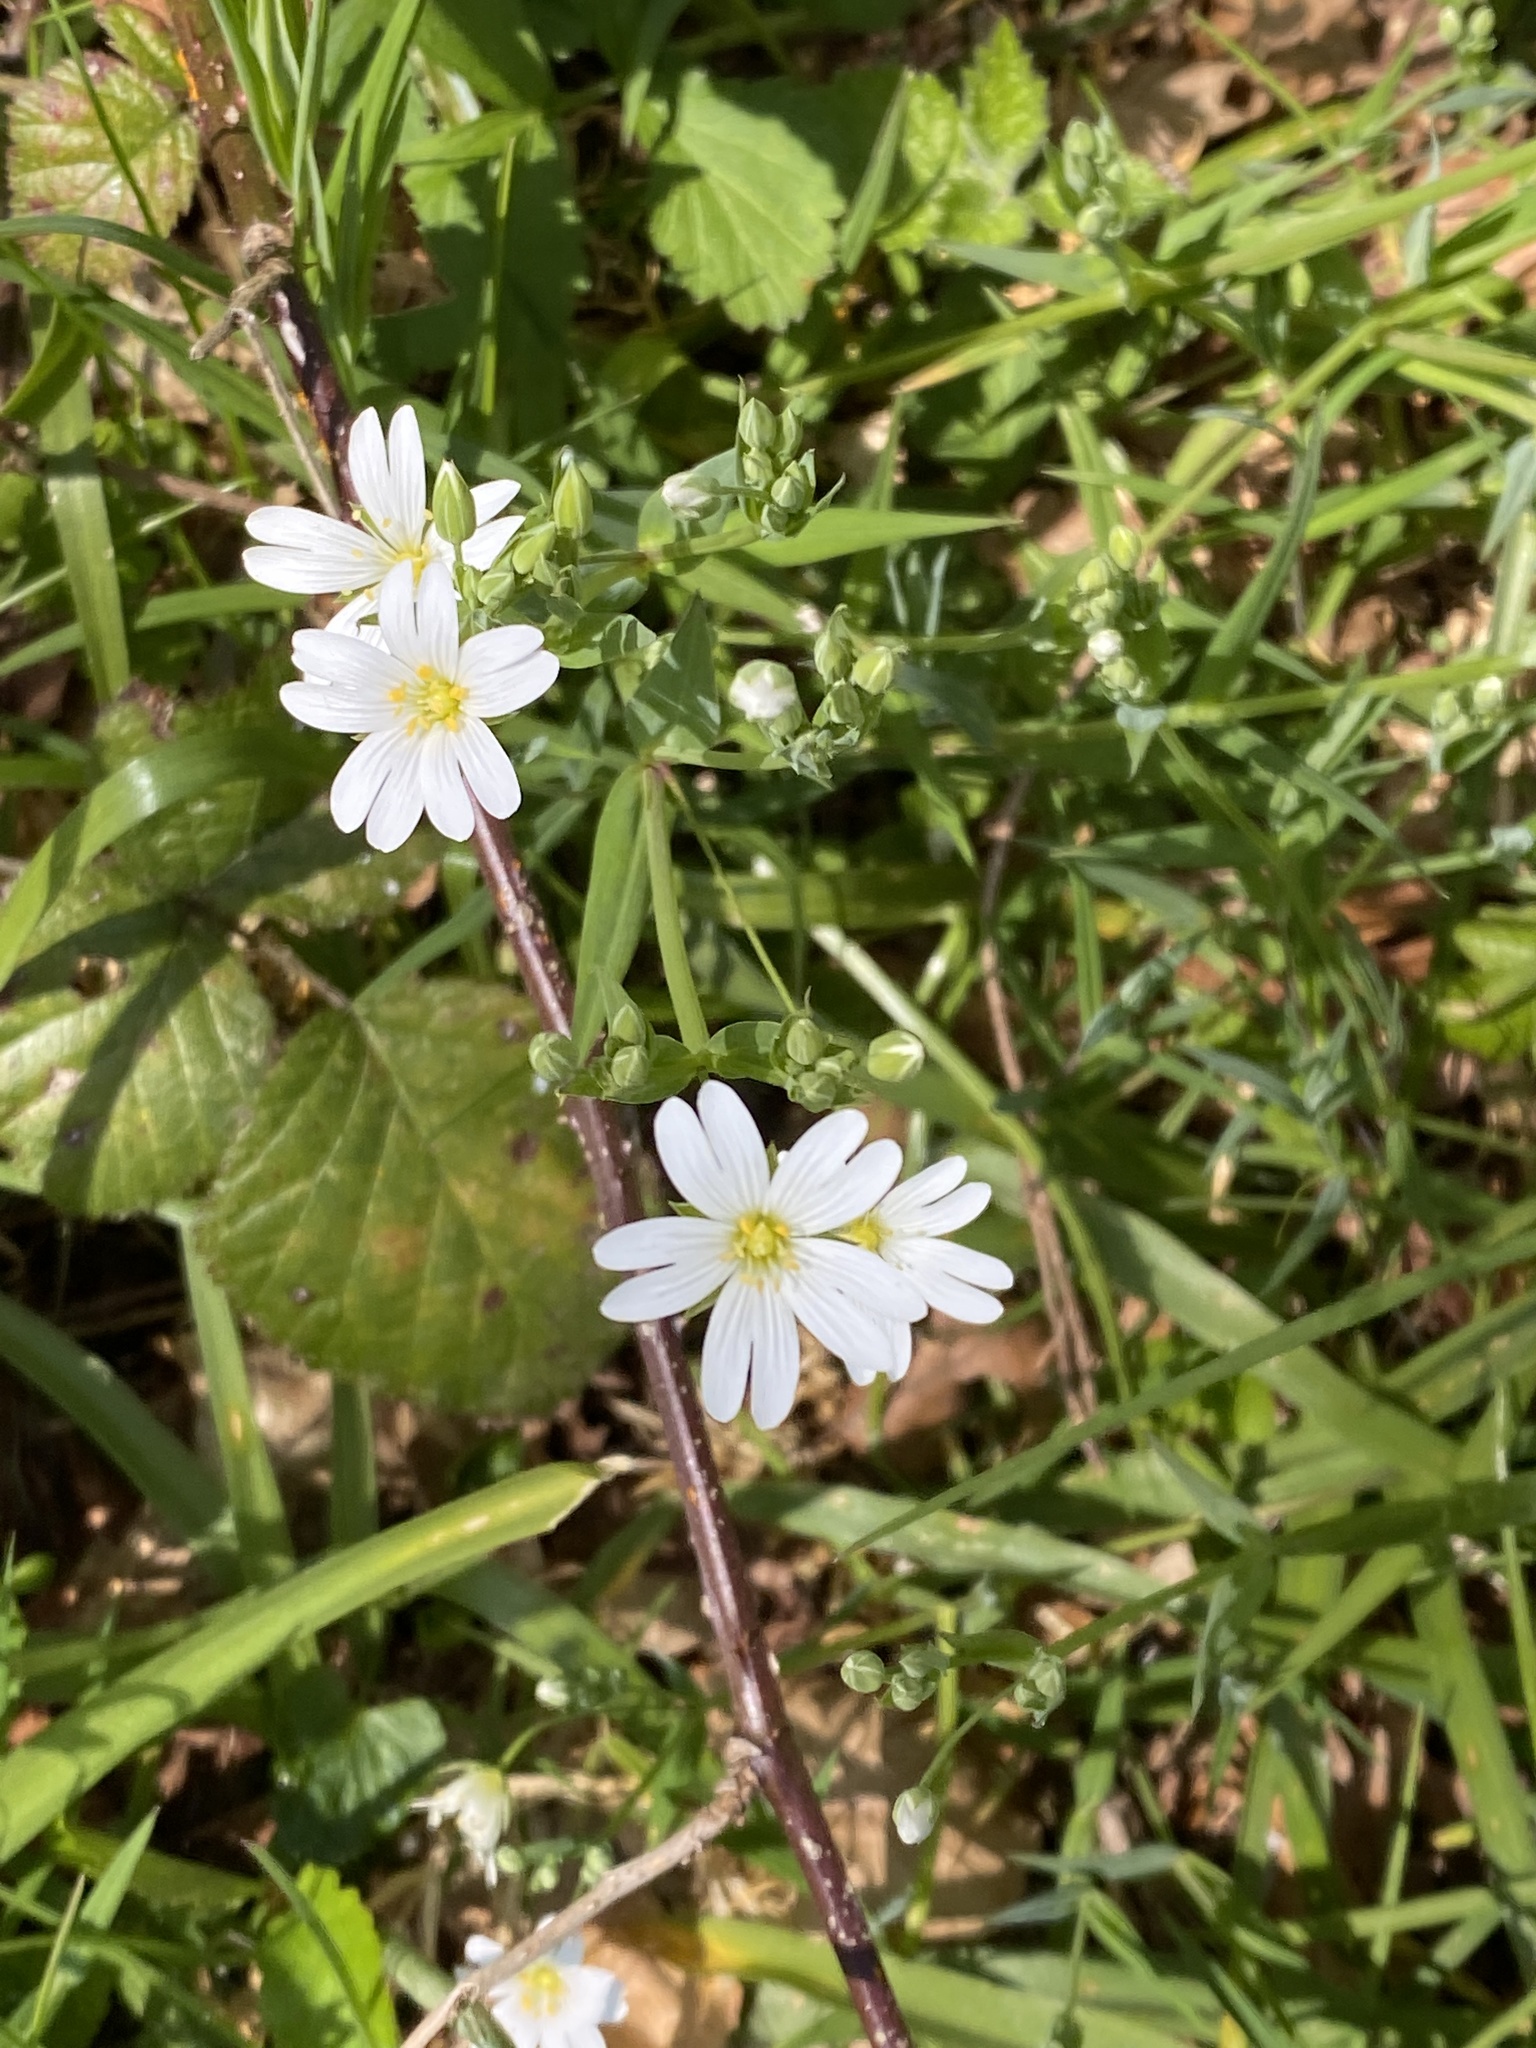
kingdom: Plantae
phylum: Tracheophyta
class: Magnoliopsida
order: Caryophyllales
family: Caryophyllaceae
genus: Rabelera
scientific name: Rabelera holostea
